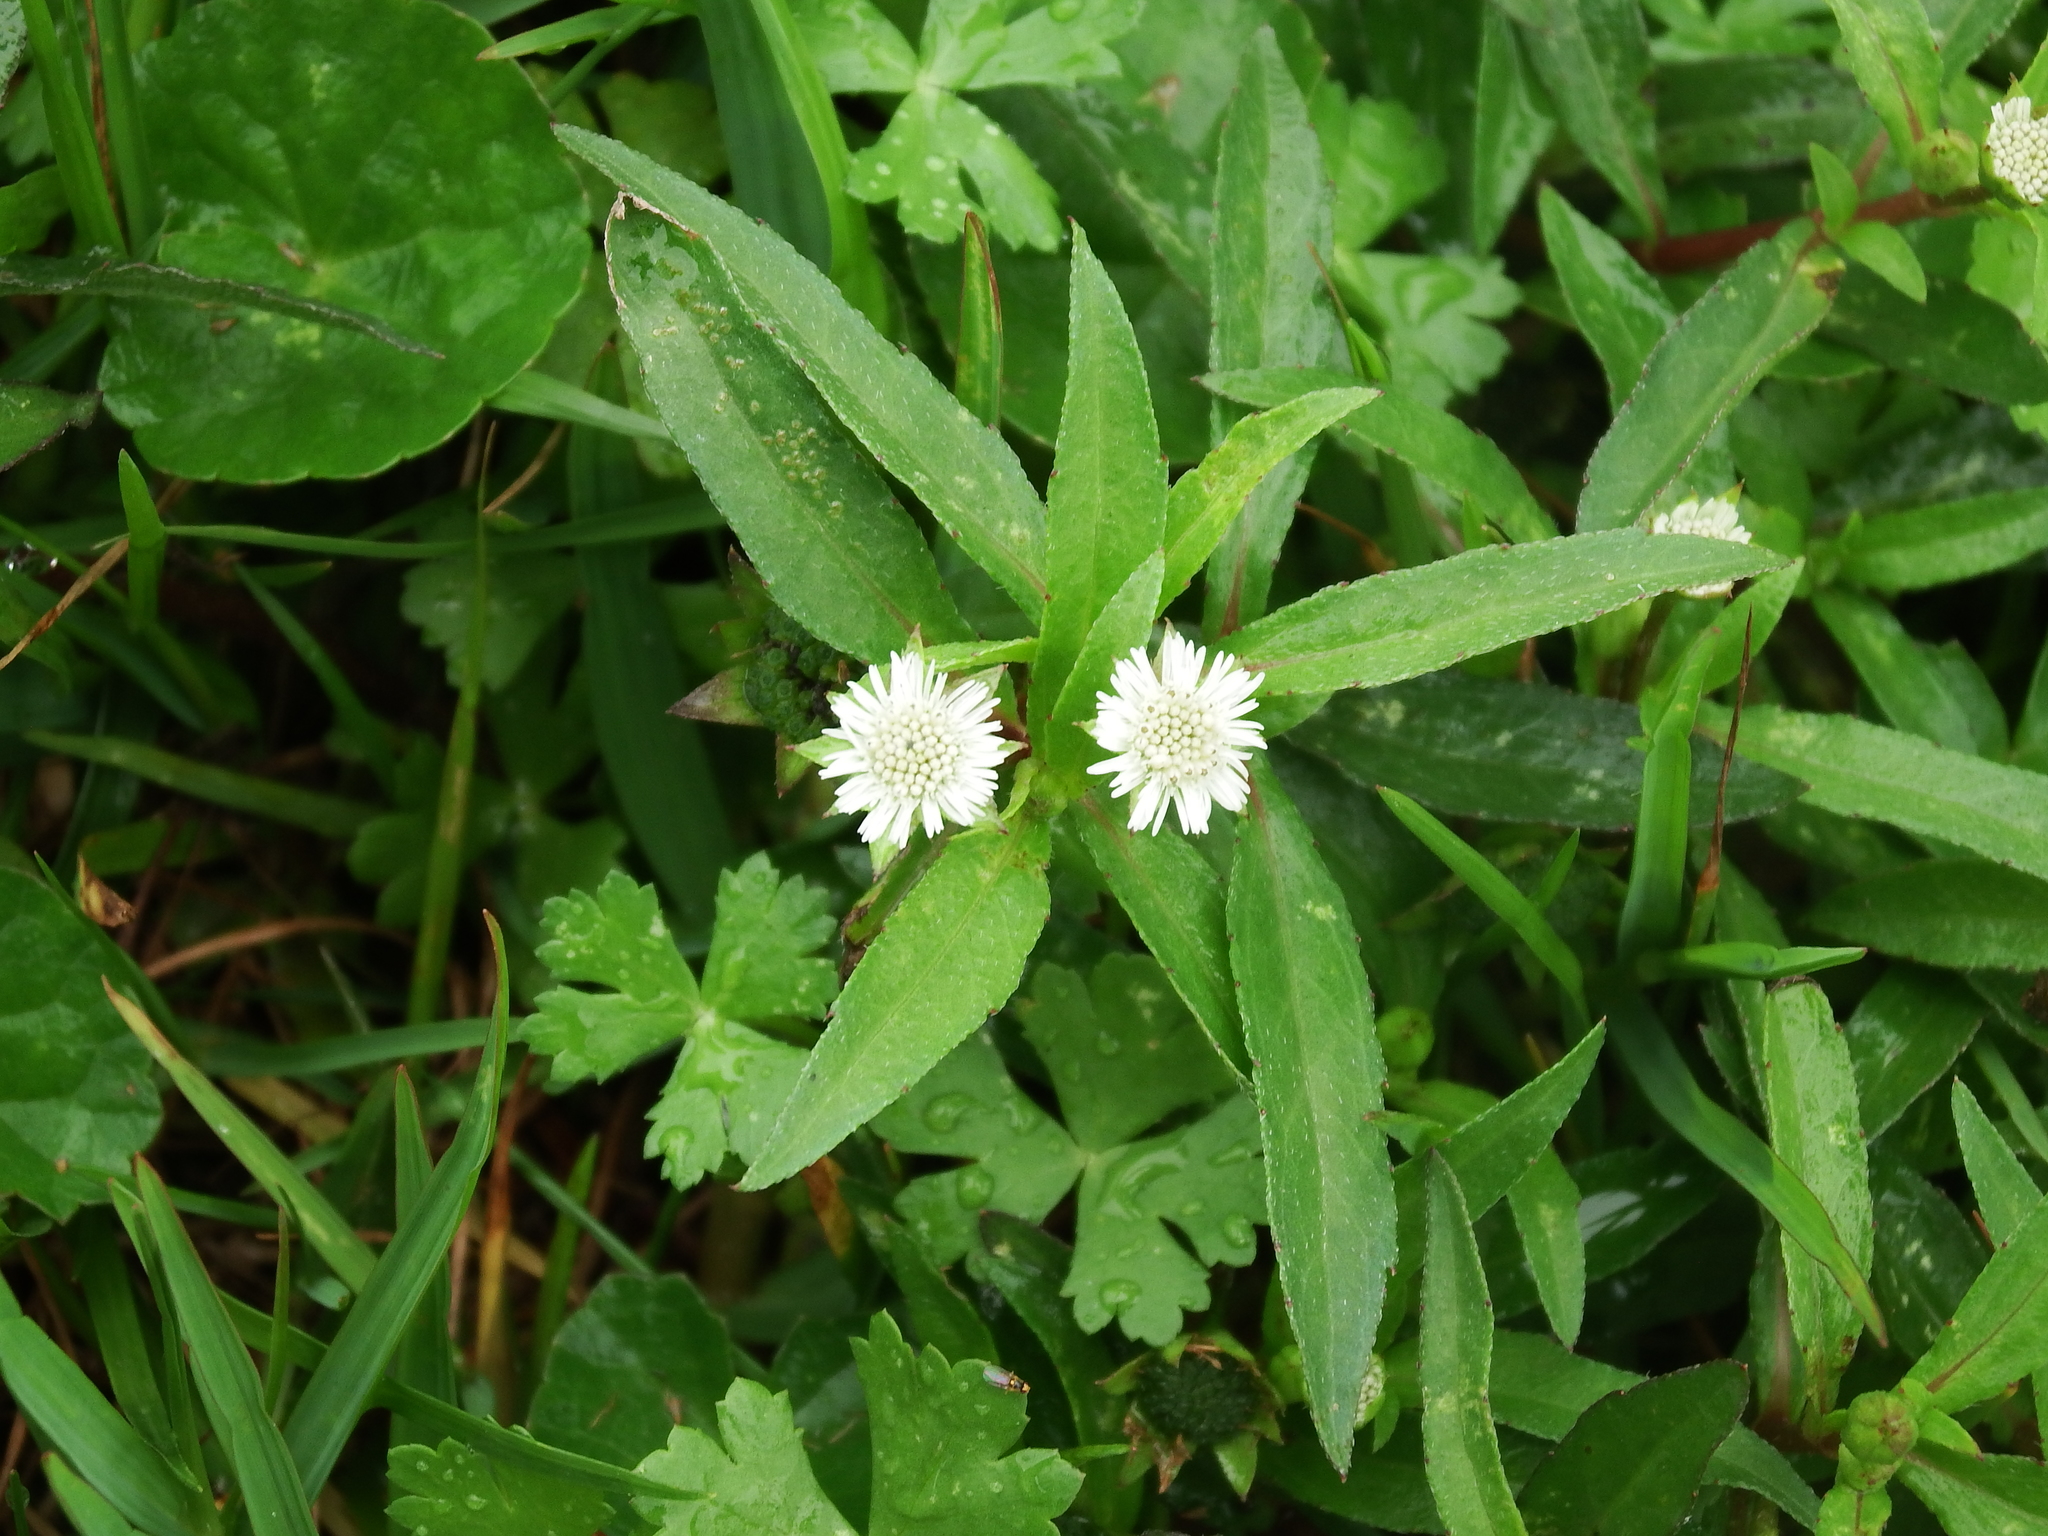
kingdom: Plantae
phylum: Tracheophyta
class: Magnoliopsida
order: Asterales
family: Asteraceae
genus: Eclipta
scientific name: Eclipta prostrata
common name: False daisy
